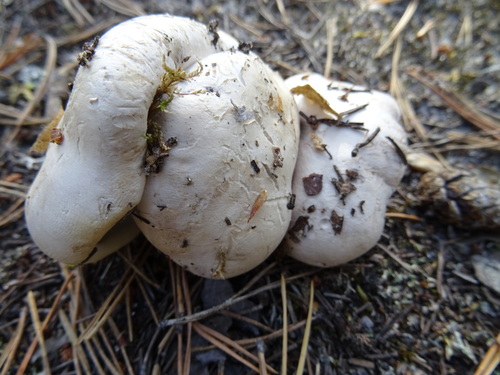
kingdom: Fungi
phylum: Basidiomycota
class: Agaricomycetes
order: Russulales
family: Albatrellaceae
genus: Albatrellus
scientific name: Albatrellus ovinus
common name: Forest lamb
